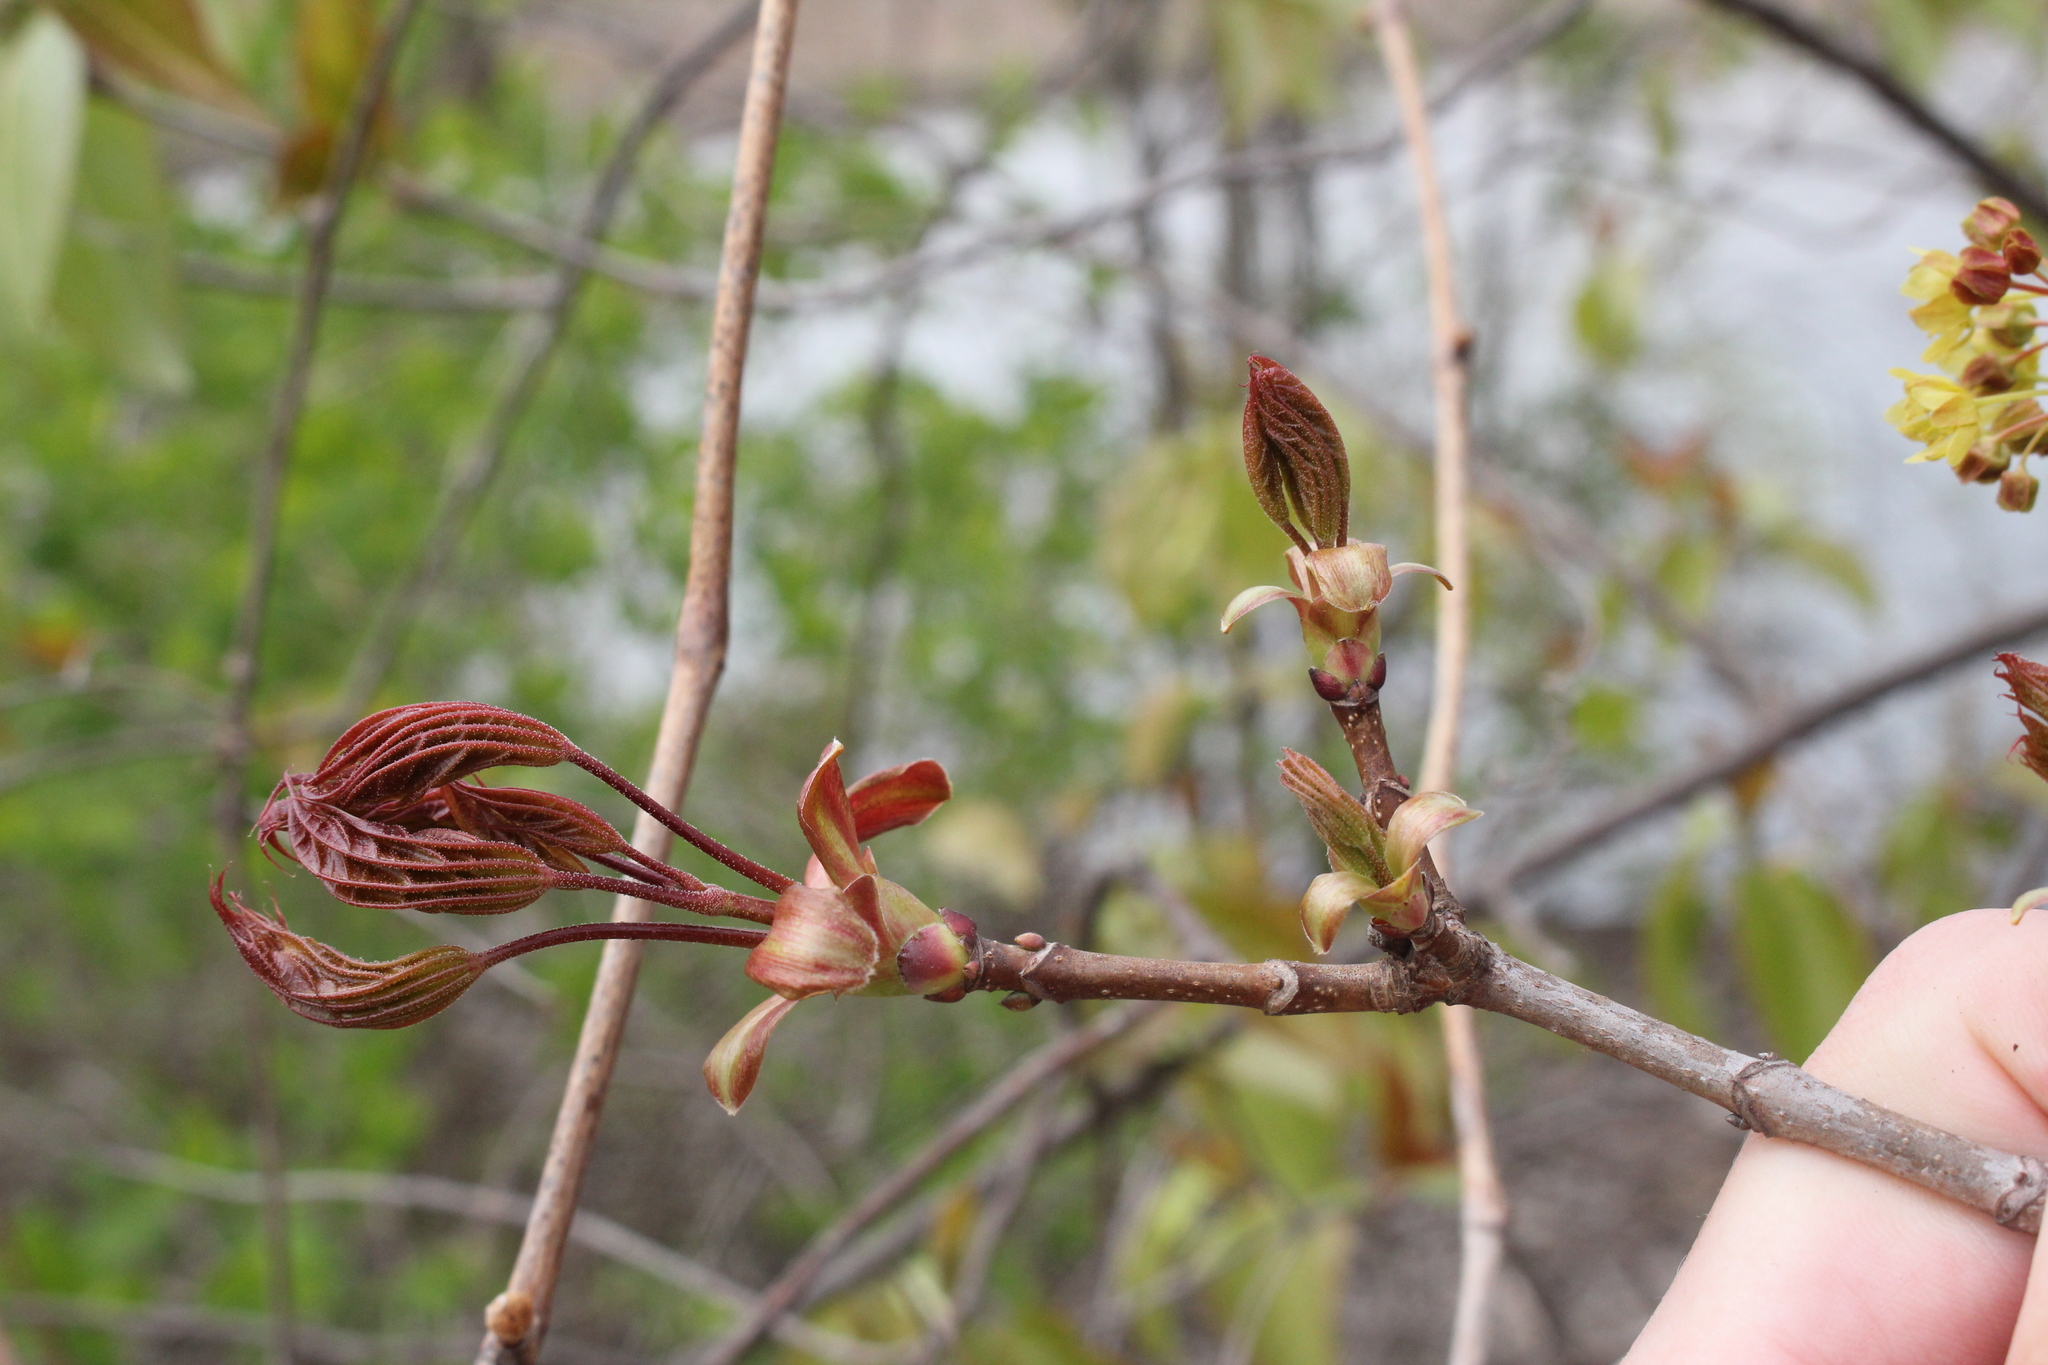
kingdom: Plantae
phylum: Tracheophyta
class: Magnoliopsida
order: Sapindales
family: Sapindaceae
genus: Acer
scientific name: Acer platanoides
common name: Norway maple
